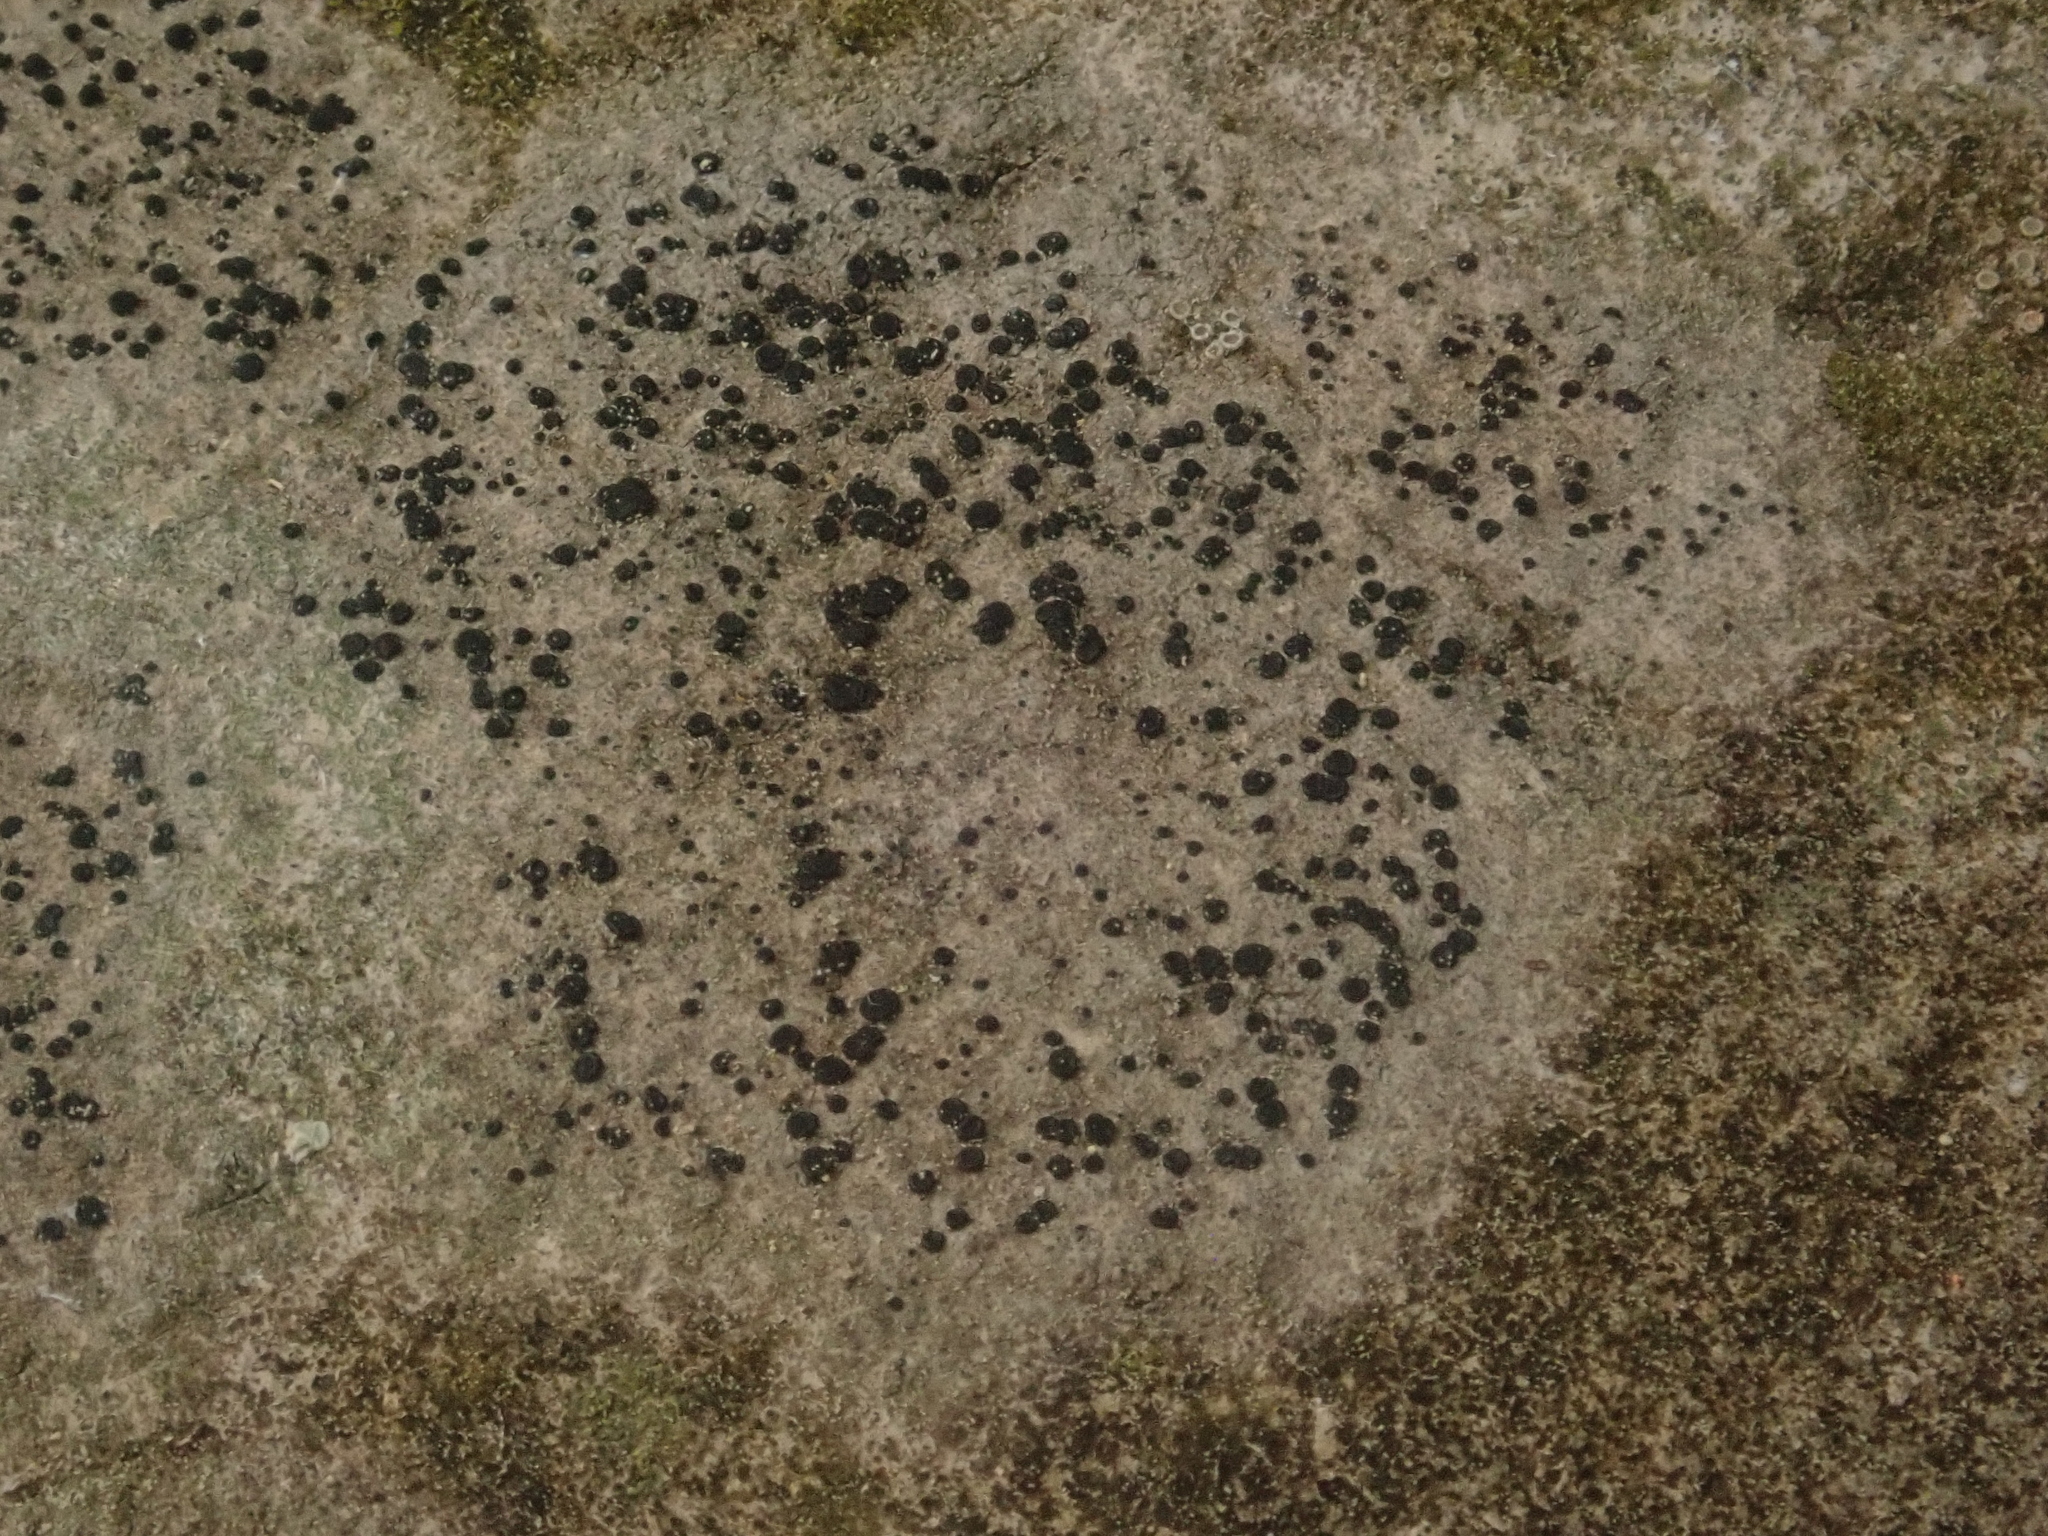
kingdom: Fungi
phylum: Ascomycota
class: Lecanoromycetes
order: Lecanorales
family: Lecanoraceae
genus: Lecidella
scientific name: Lecidella stigmatea
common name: Limestone disc lichen
